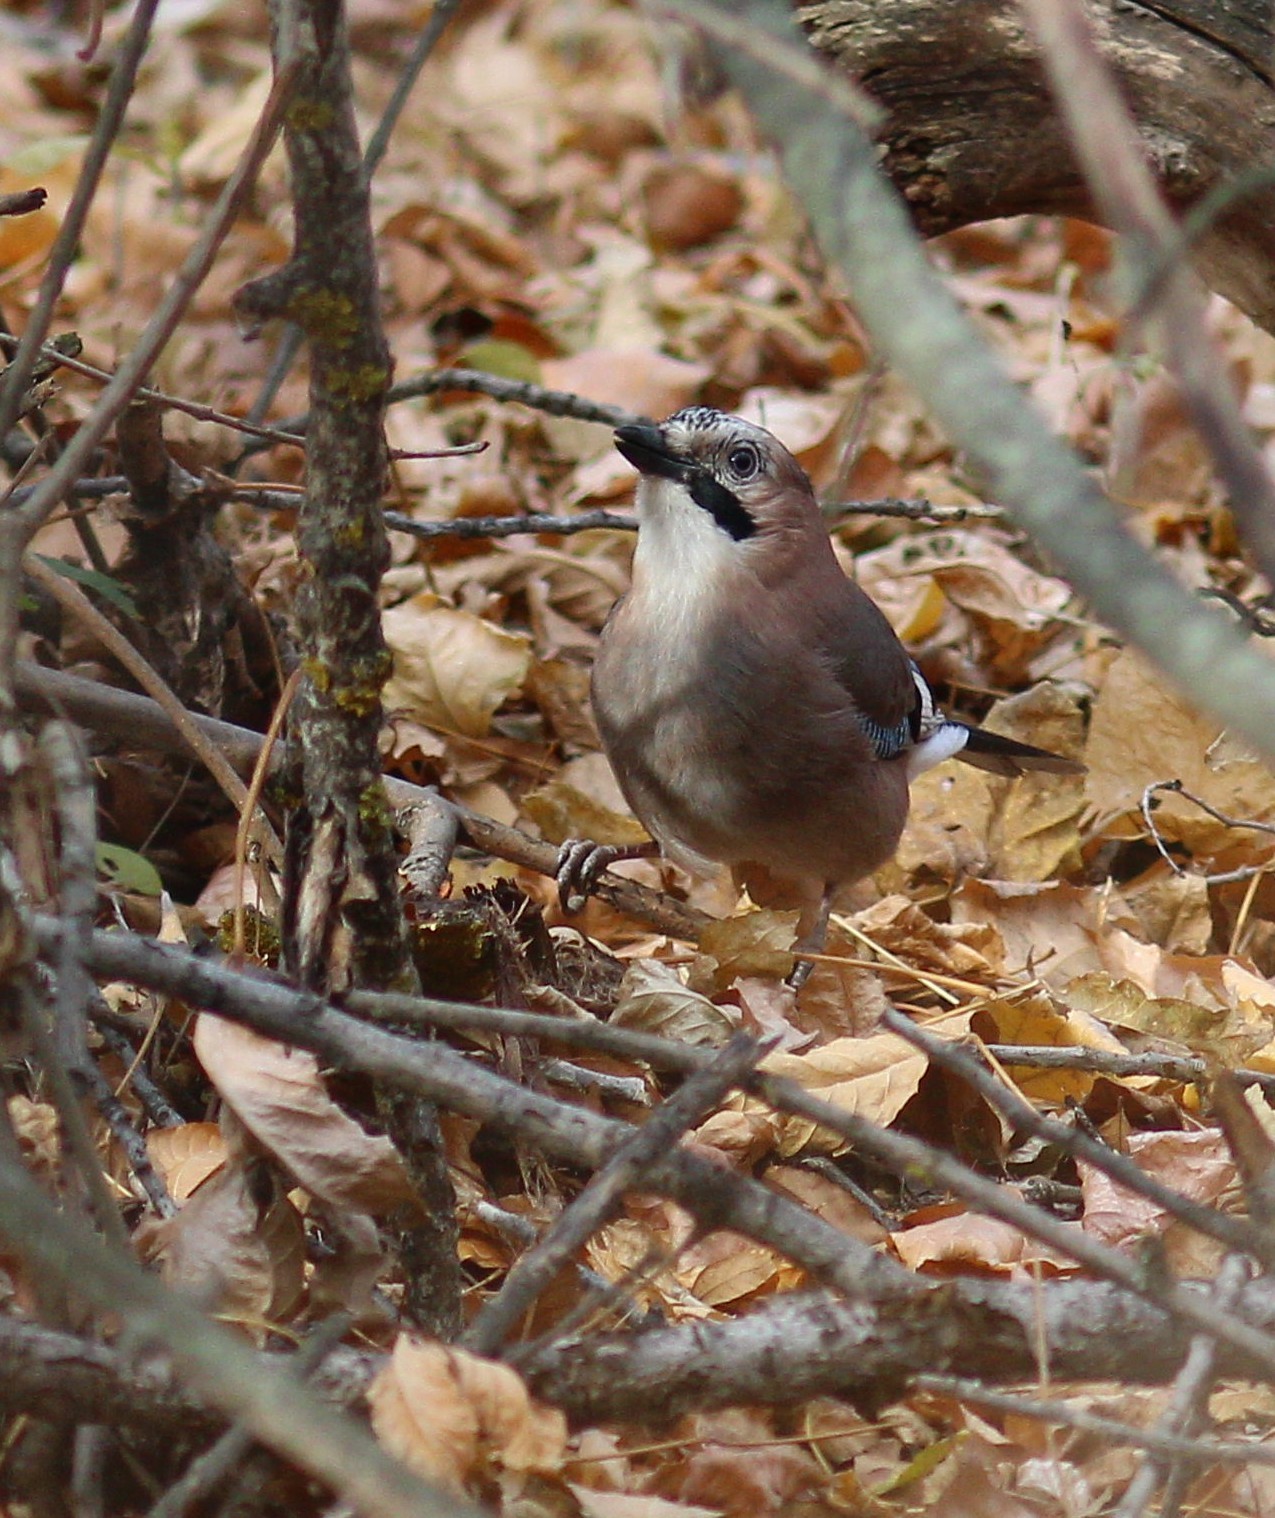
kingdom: Animalia
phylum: Chordata
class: Aves
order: Passeriformes
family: Corvidae
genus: Garrulus
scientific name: Garrulus glandarius
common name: Eurasian jay
